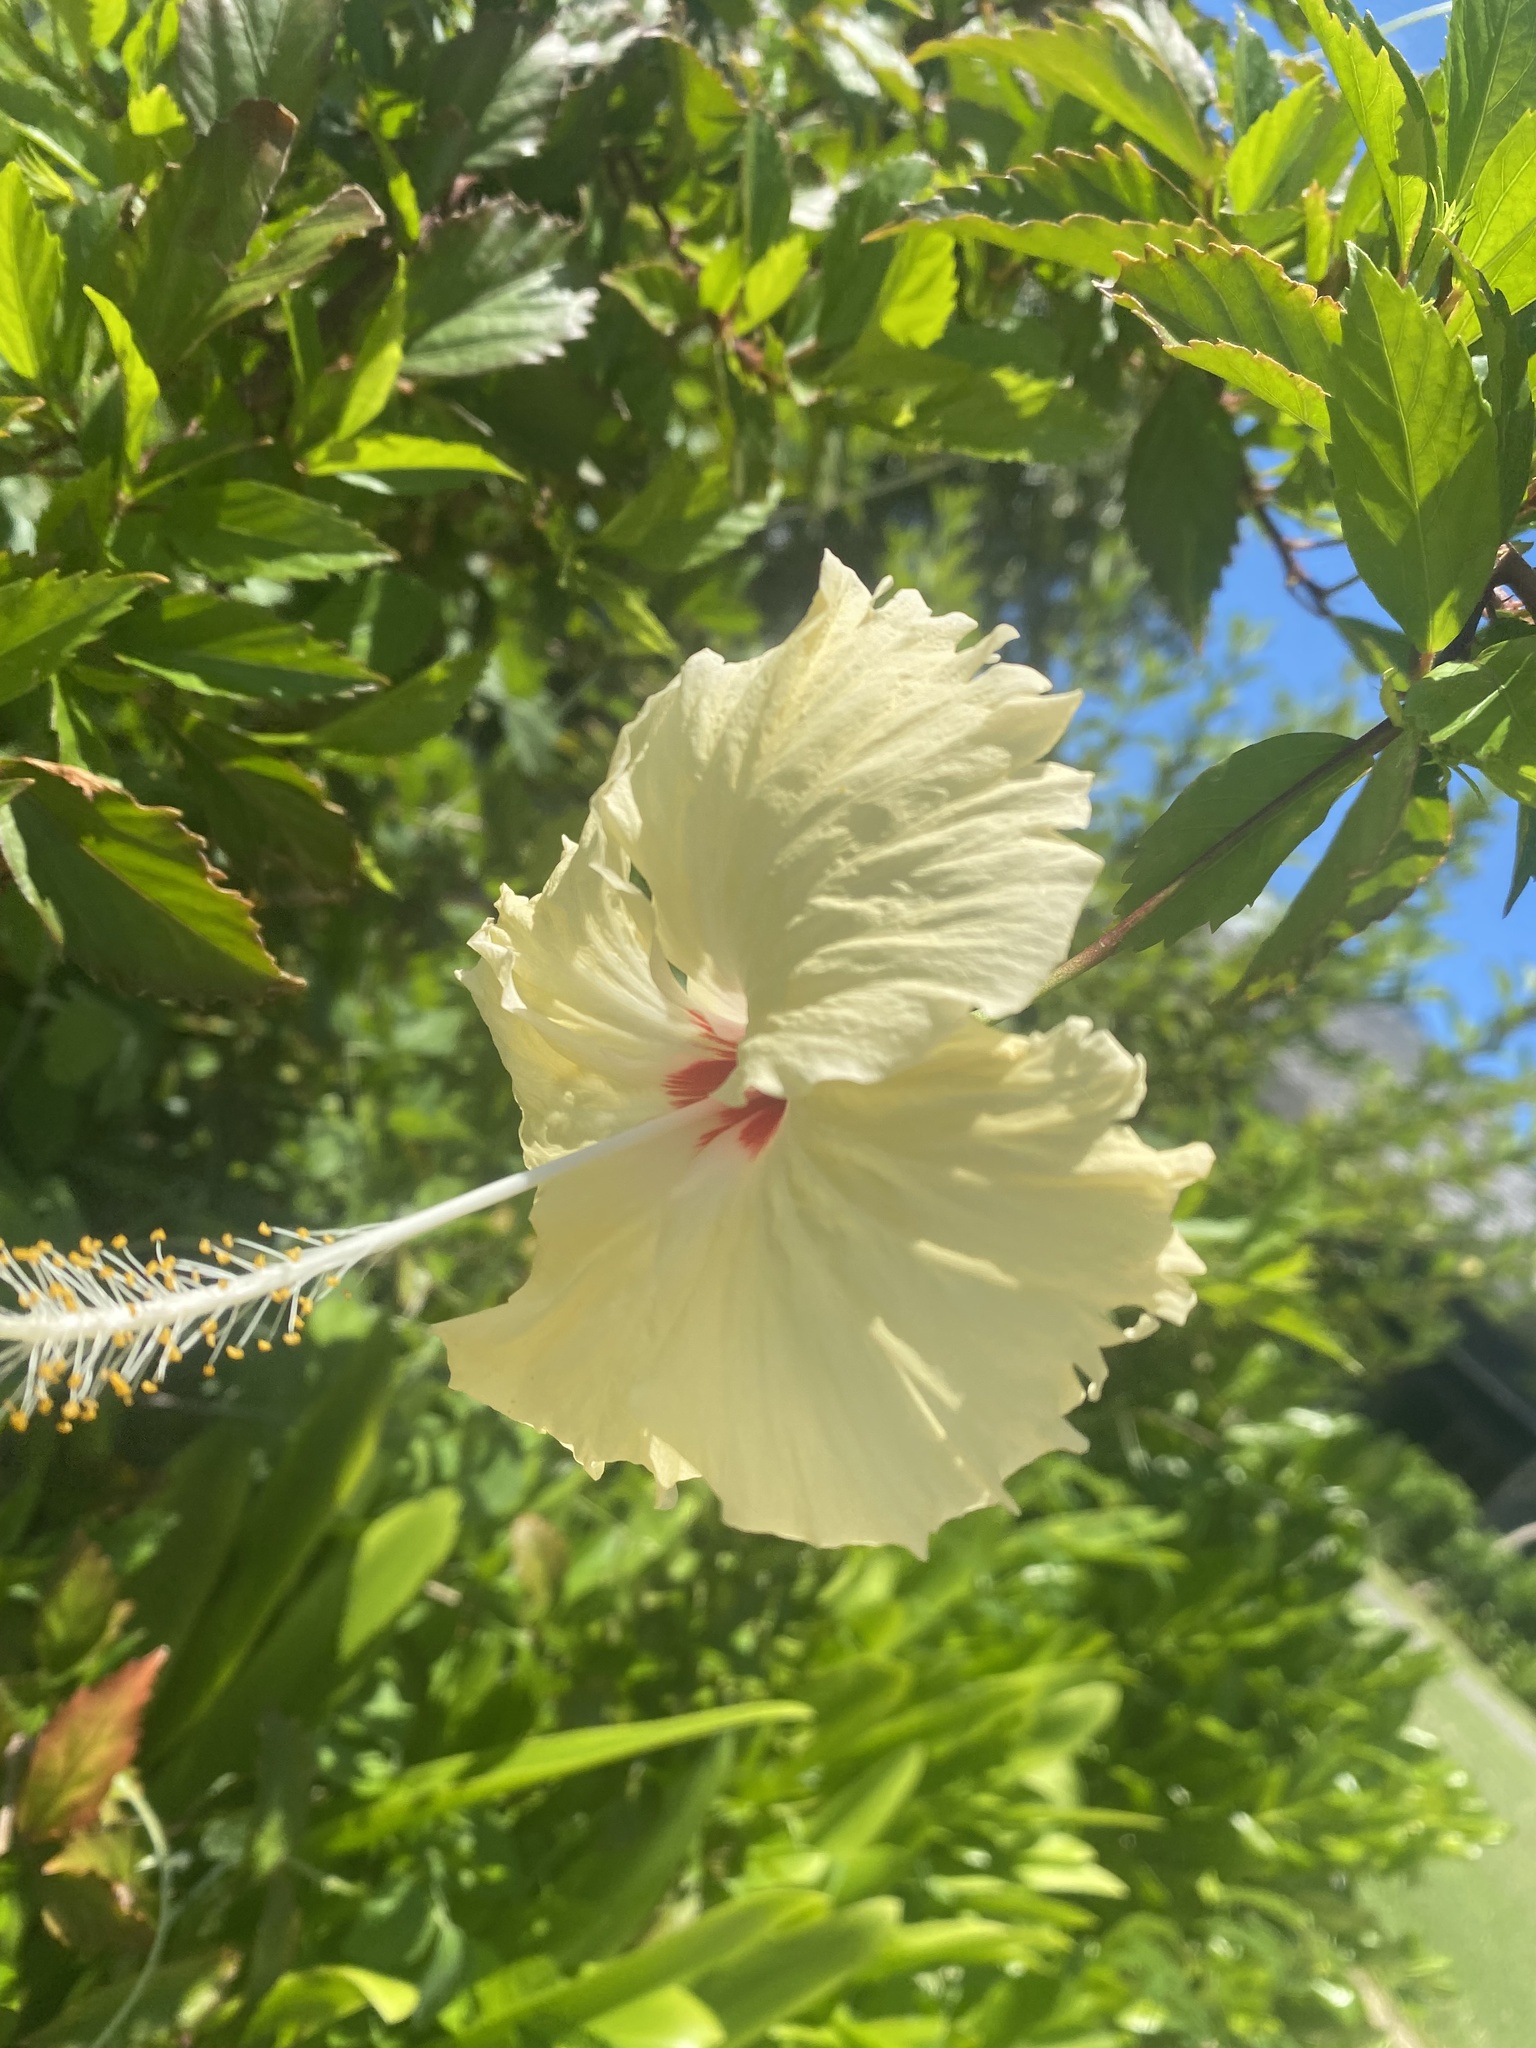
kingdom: Plantae
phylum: Tracheophyta
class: Magnoliopsida
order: Malvales
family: Malvaceae
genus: Hibiscus
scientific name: Hibiscus archeri
